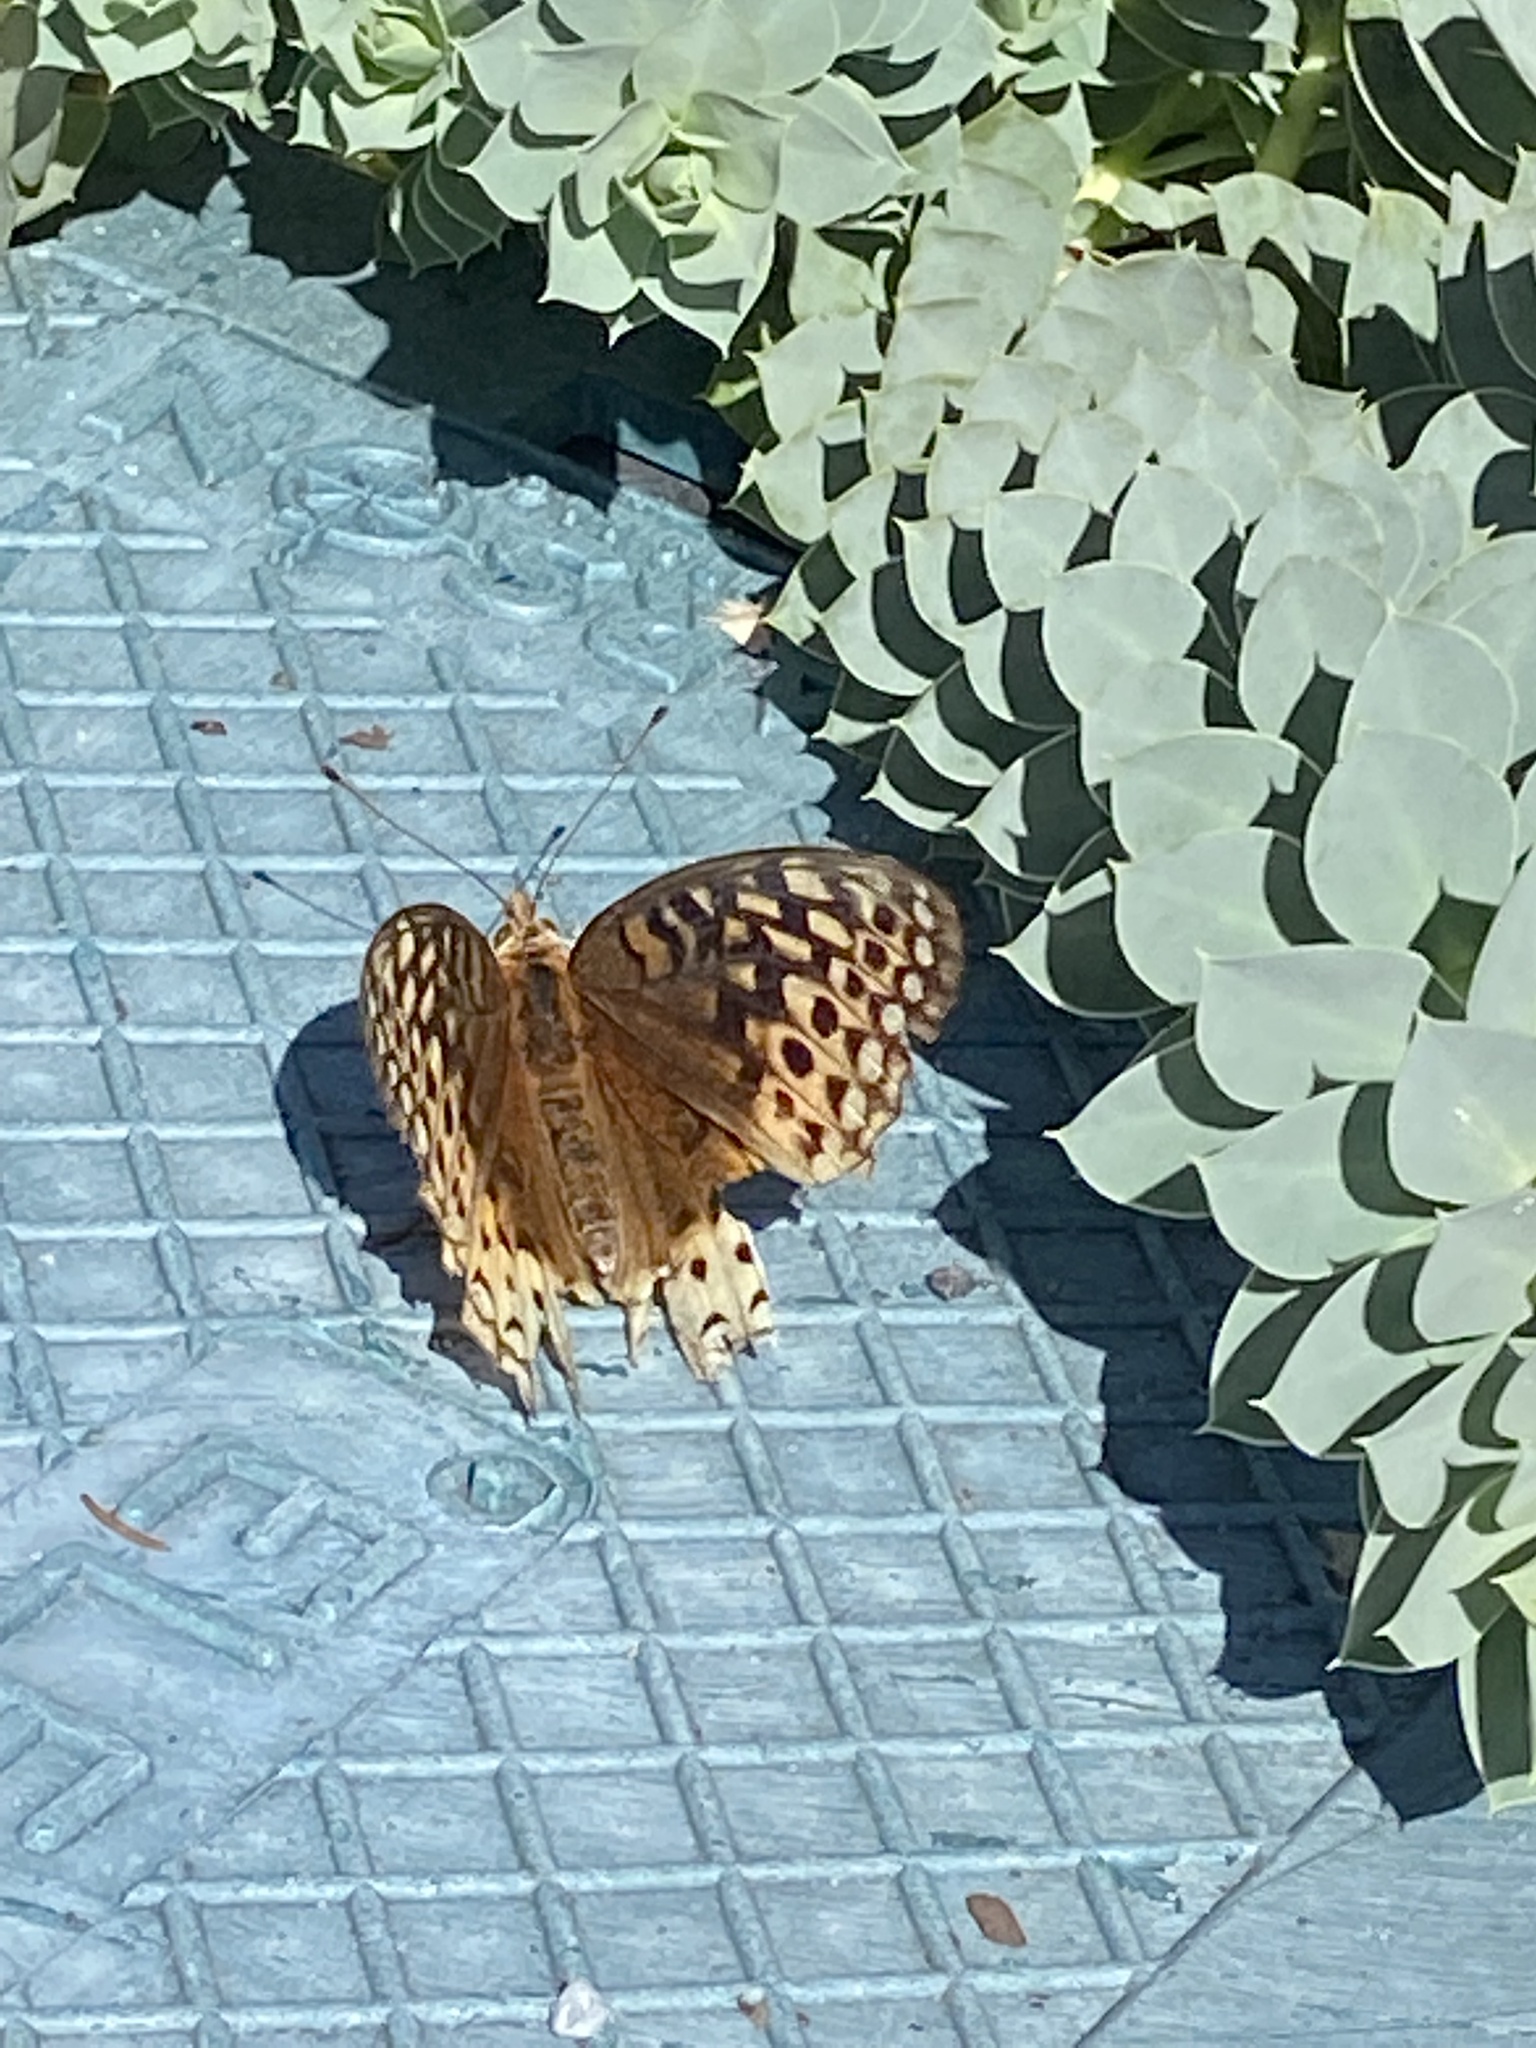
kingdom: Animalia
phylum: Arthropoda
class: Insecta
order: Lepidoptera
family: Nymphalidae
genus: Speyeria
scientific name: Speyeria cybele
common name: Great spangled fritillary
